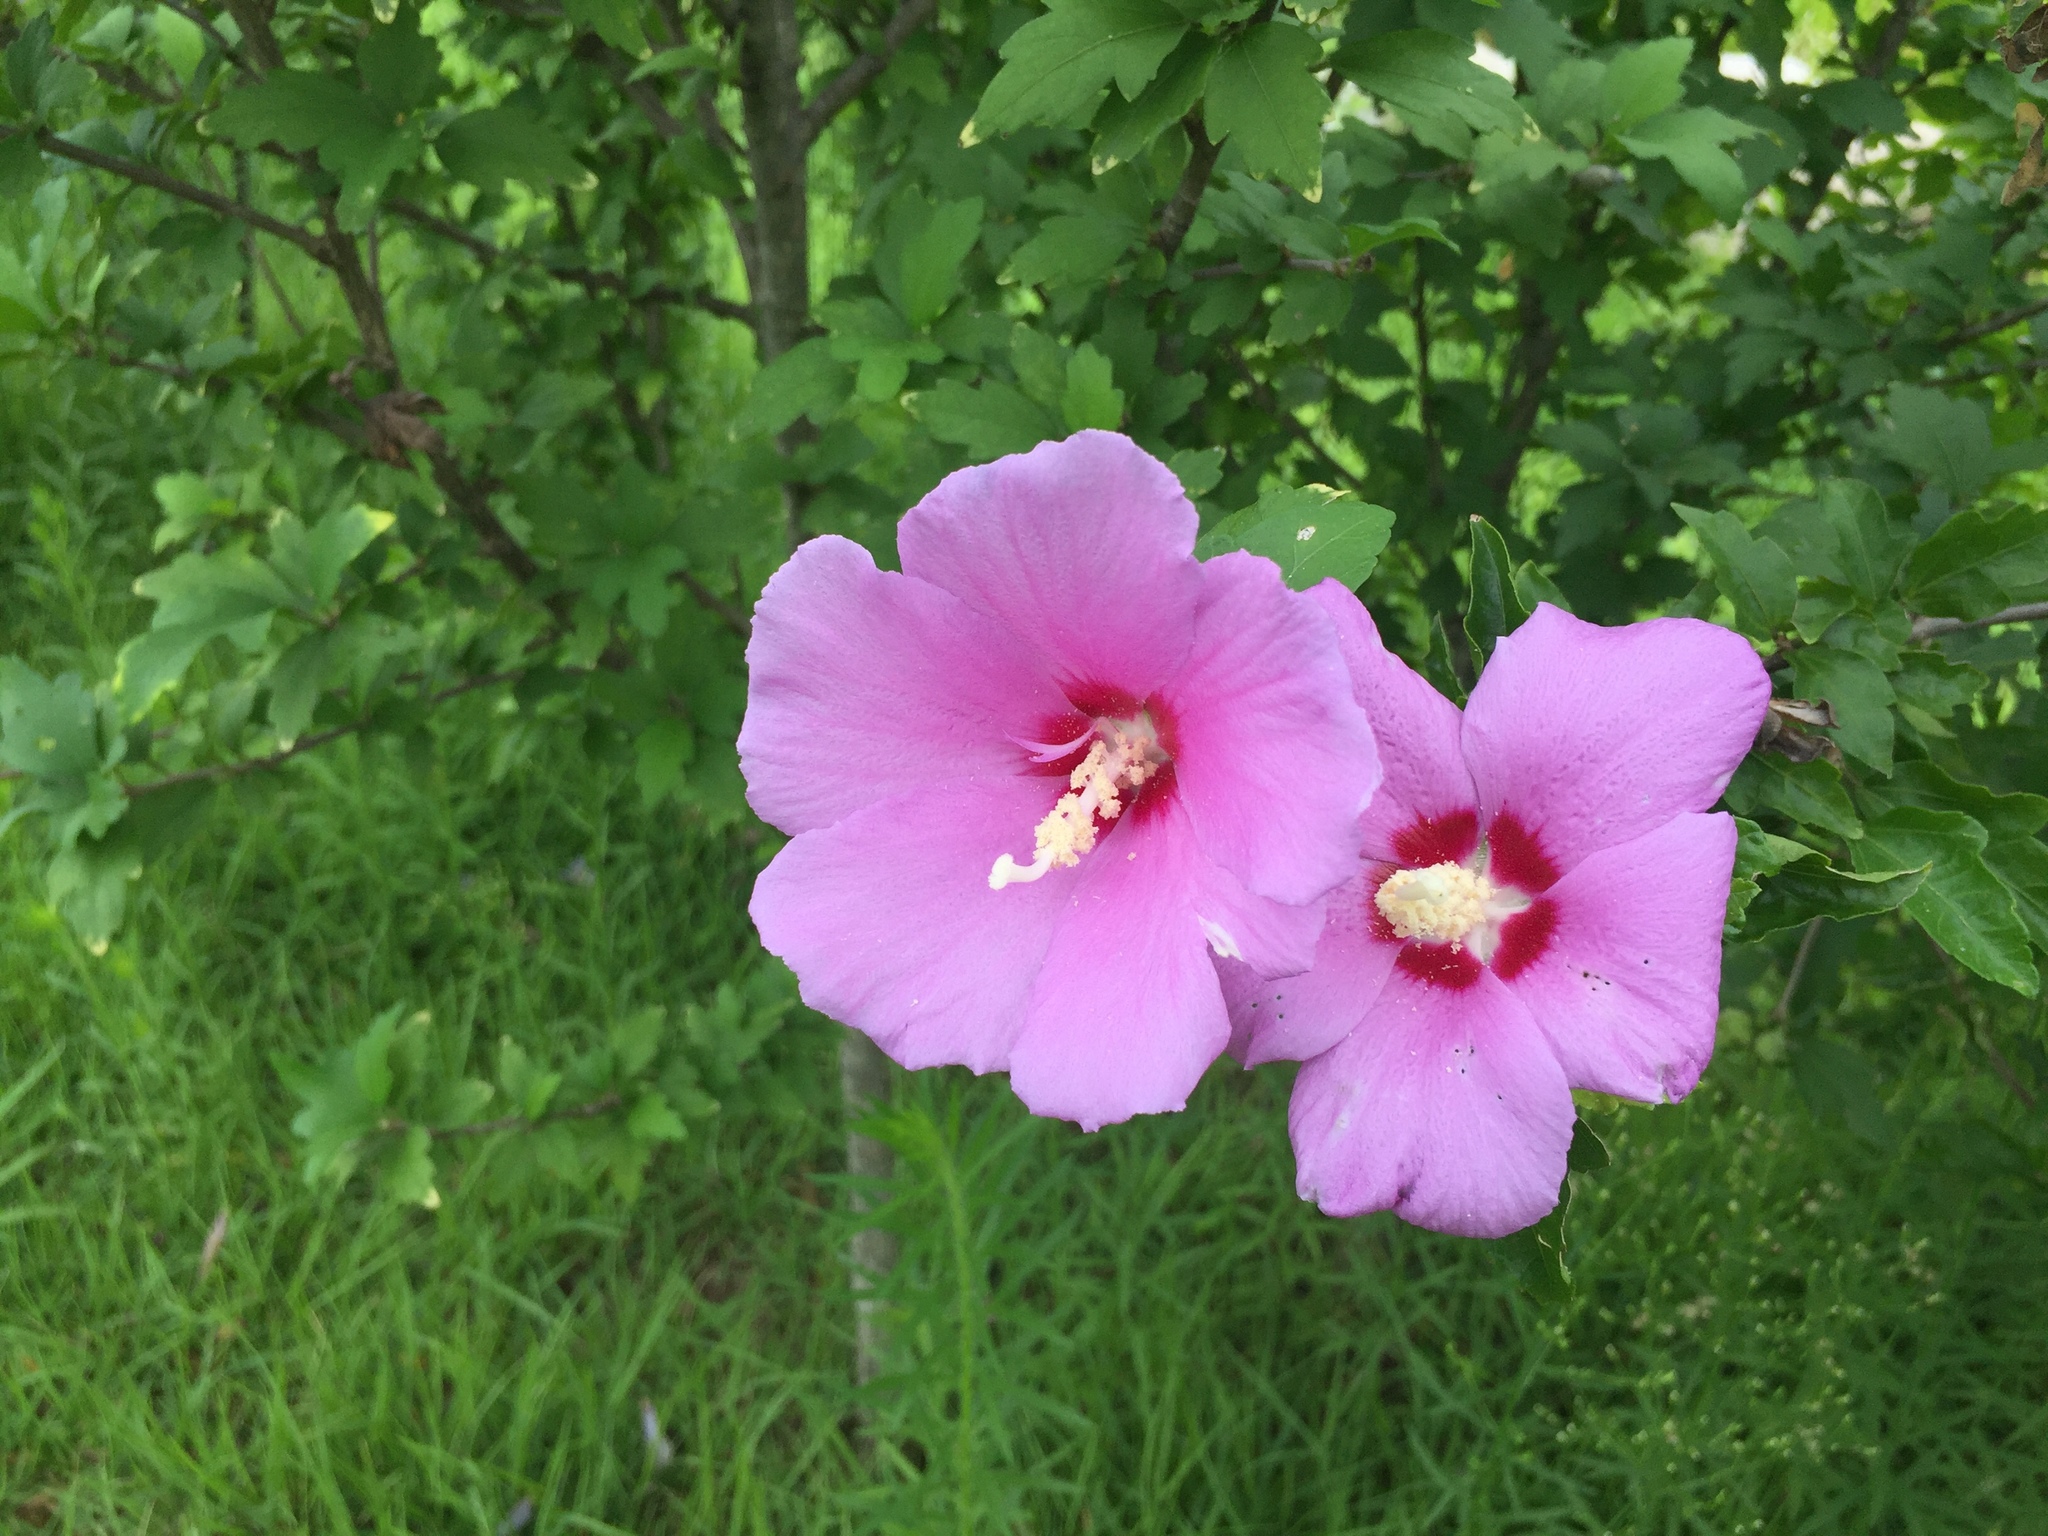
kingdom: Plantae
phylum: Tracheophyta
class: Magnoliopsida
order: Malvales
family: Malvaceae
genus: Hibiscus
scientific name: Hibiscus syriacus
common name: Syrian ketmia
